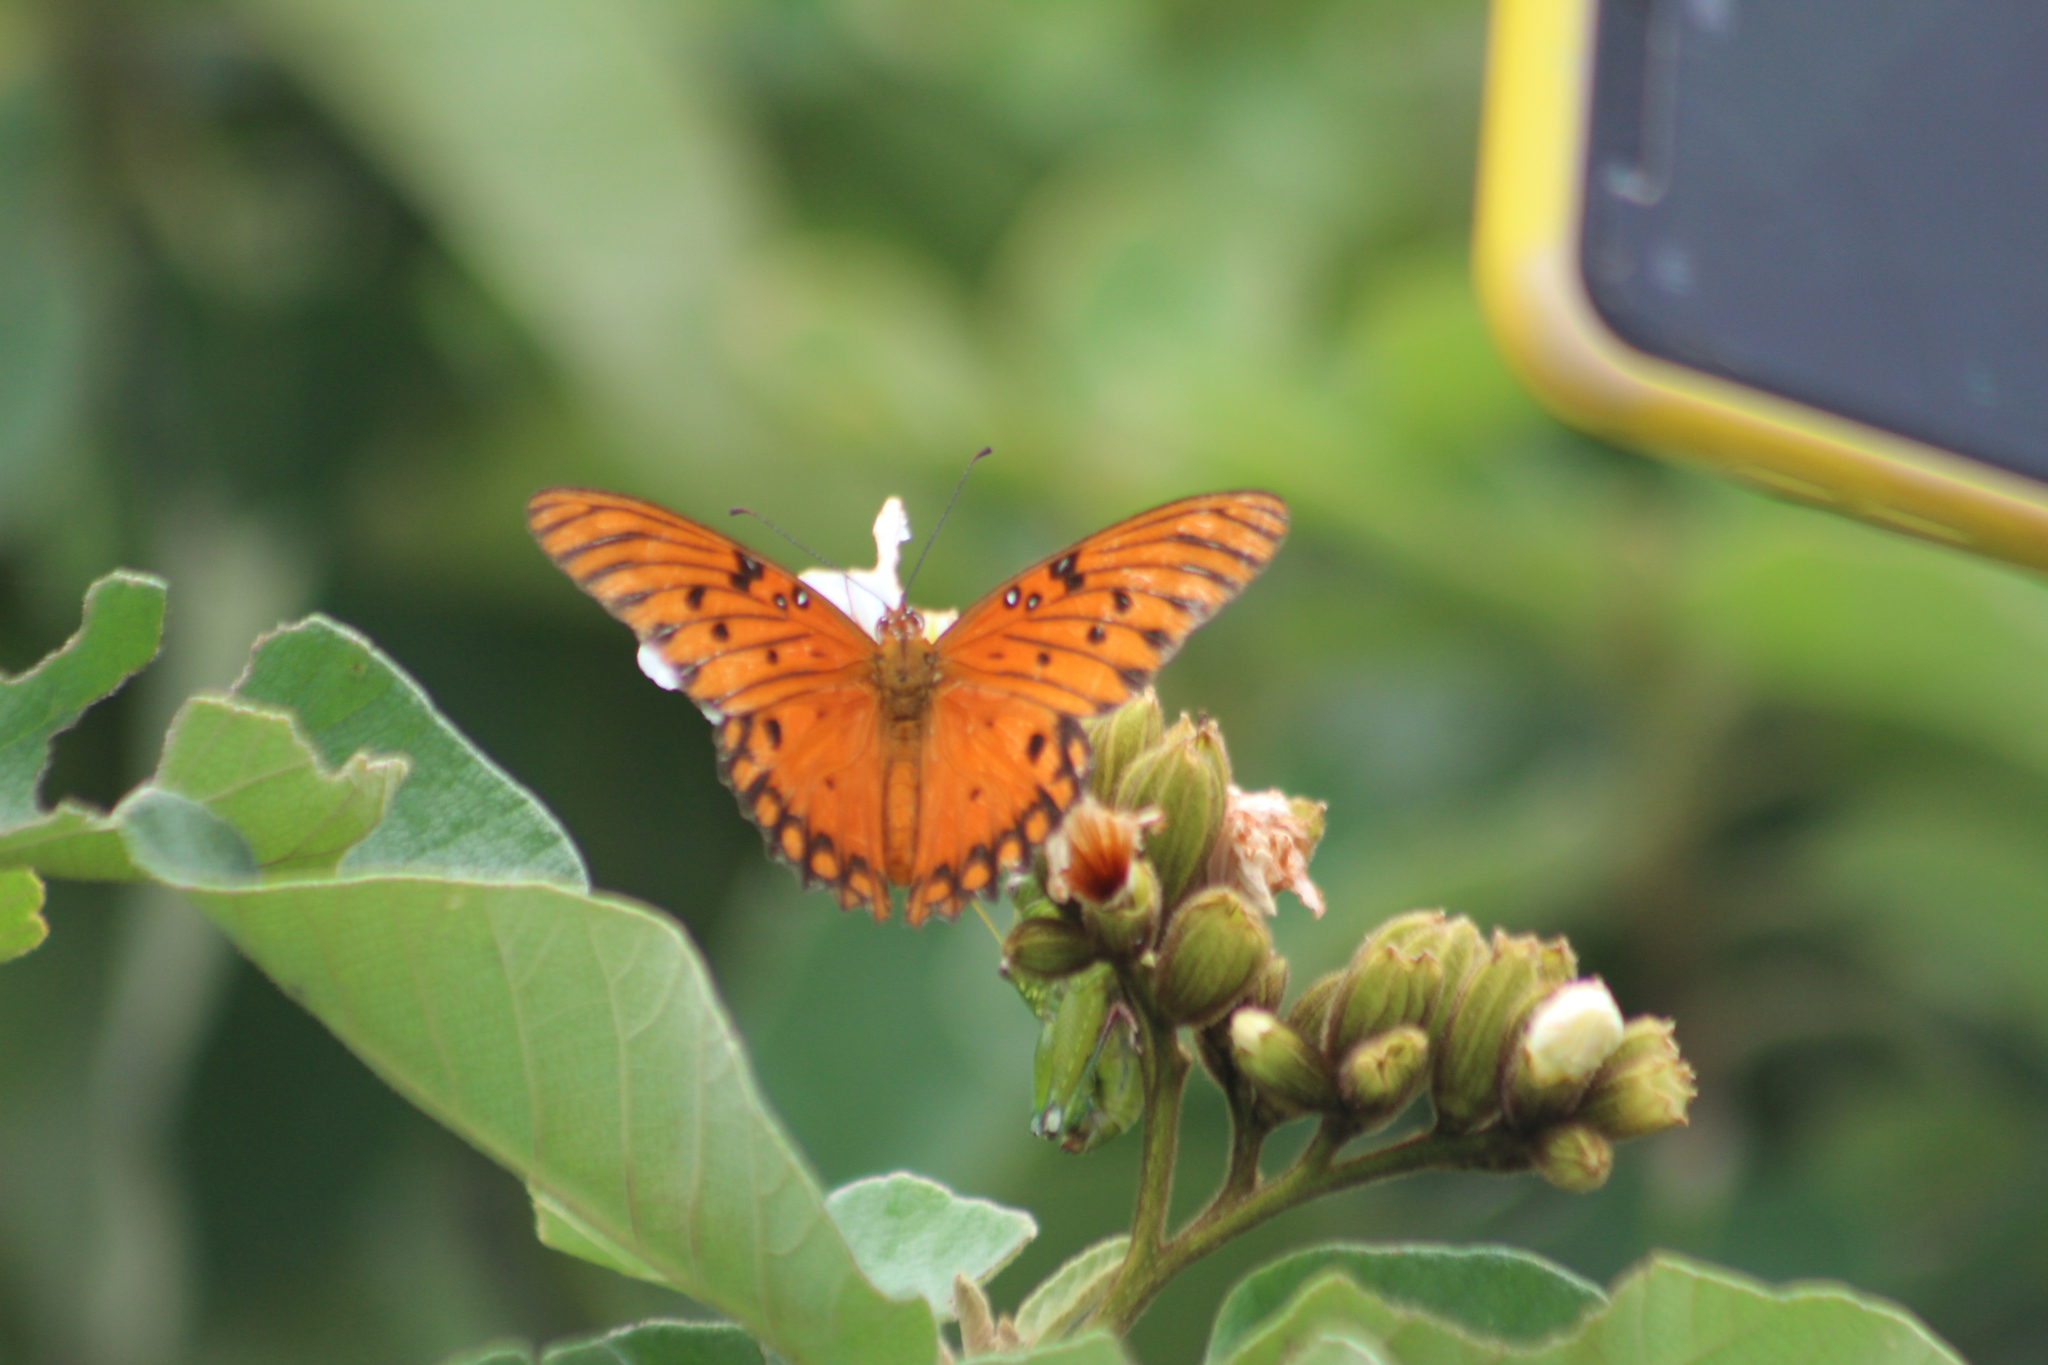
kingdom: Animalia
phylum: Arthropoda
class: Insecta
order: Lepidoptera
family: Nymphalidae
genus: Dione
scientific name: Dione vanillae
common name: Gulf fritillary
